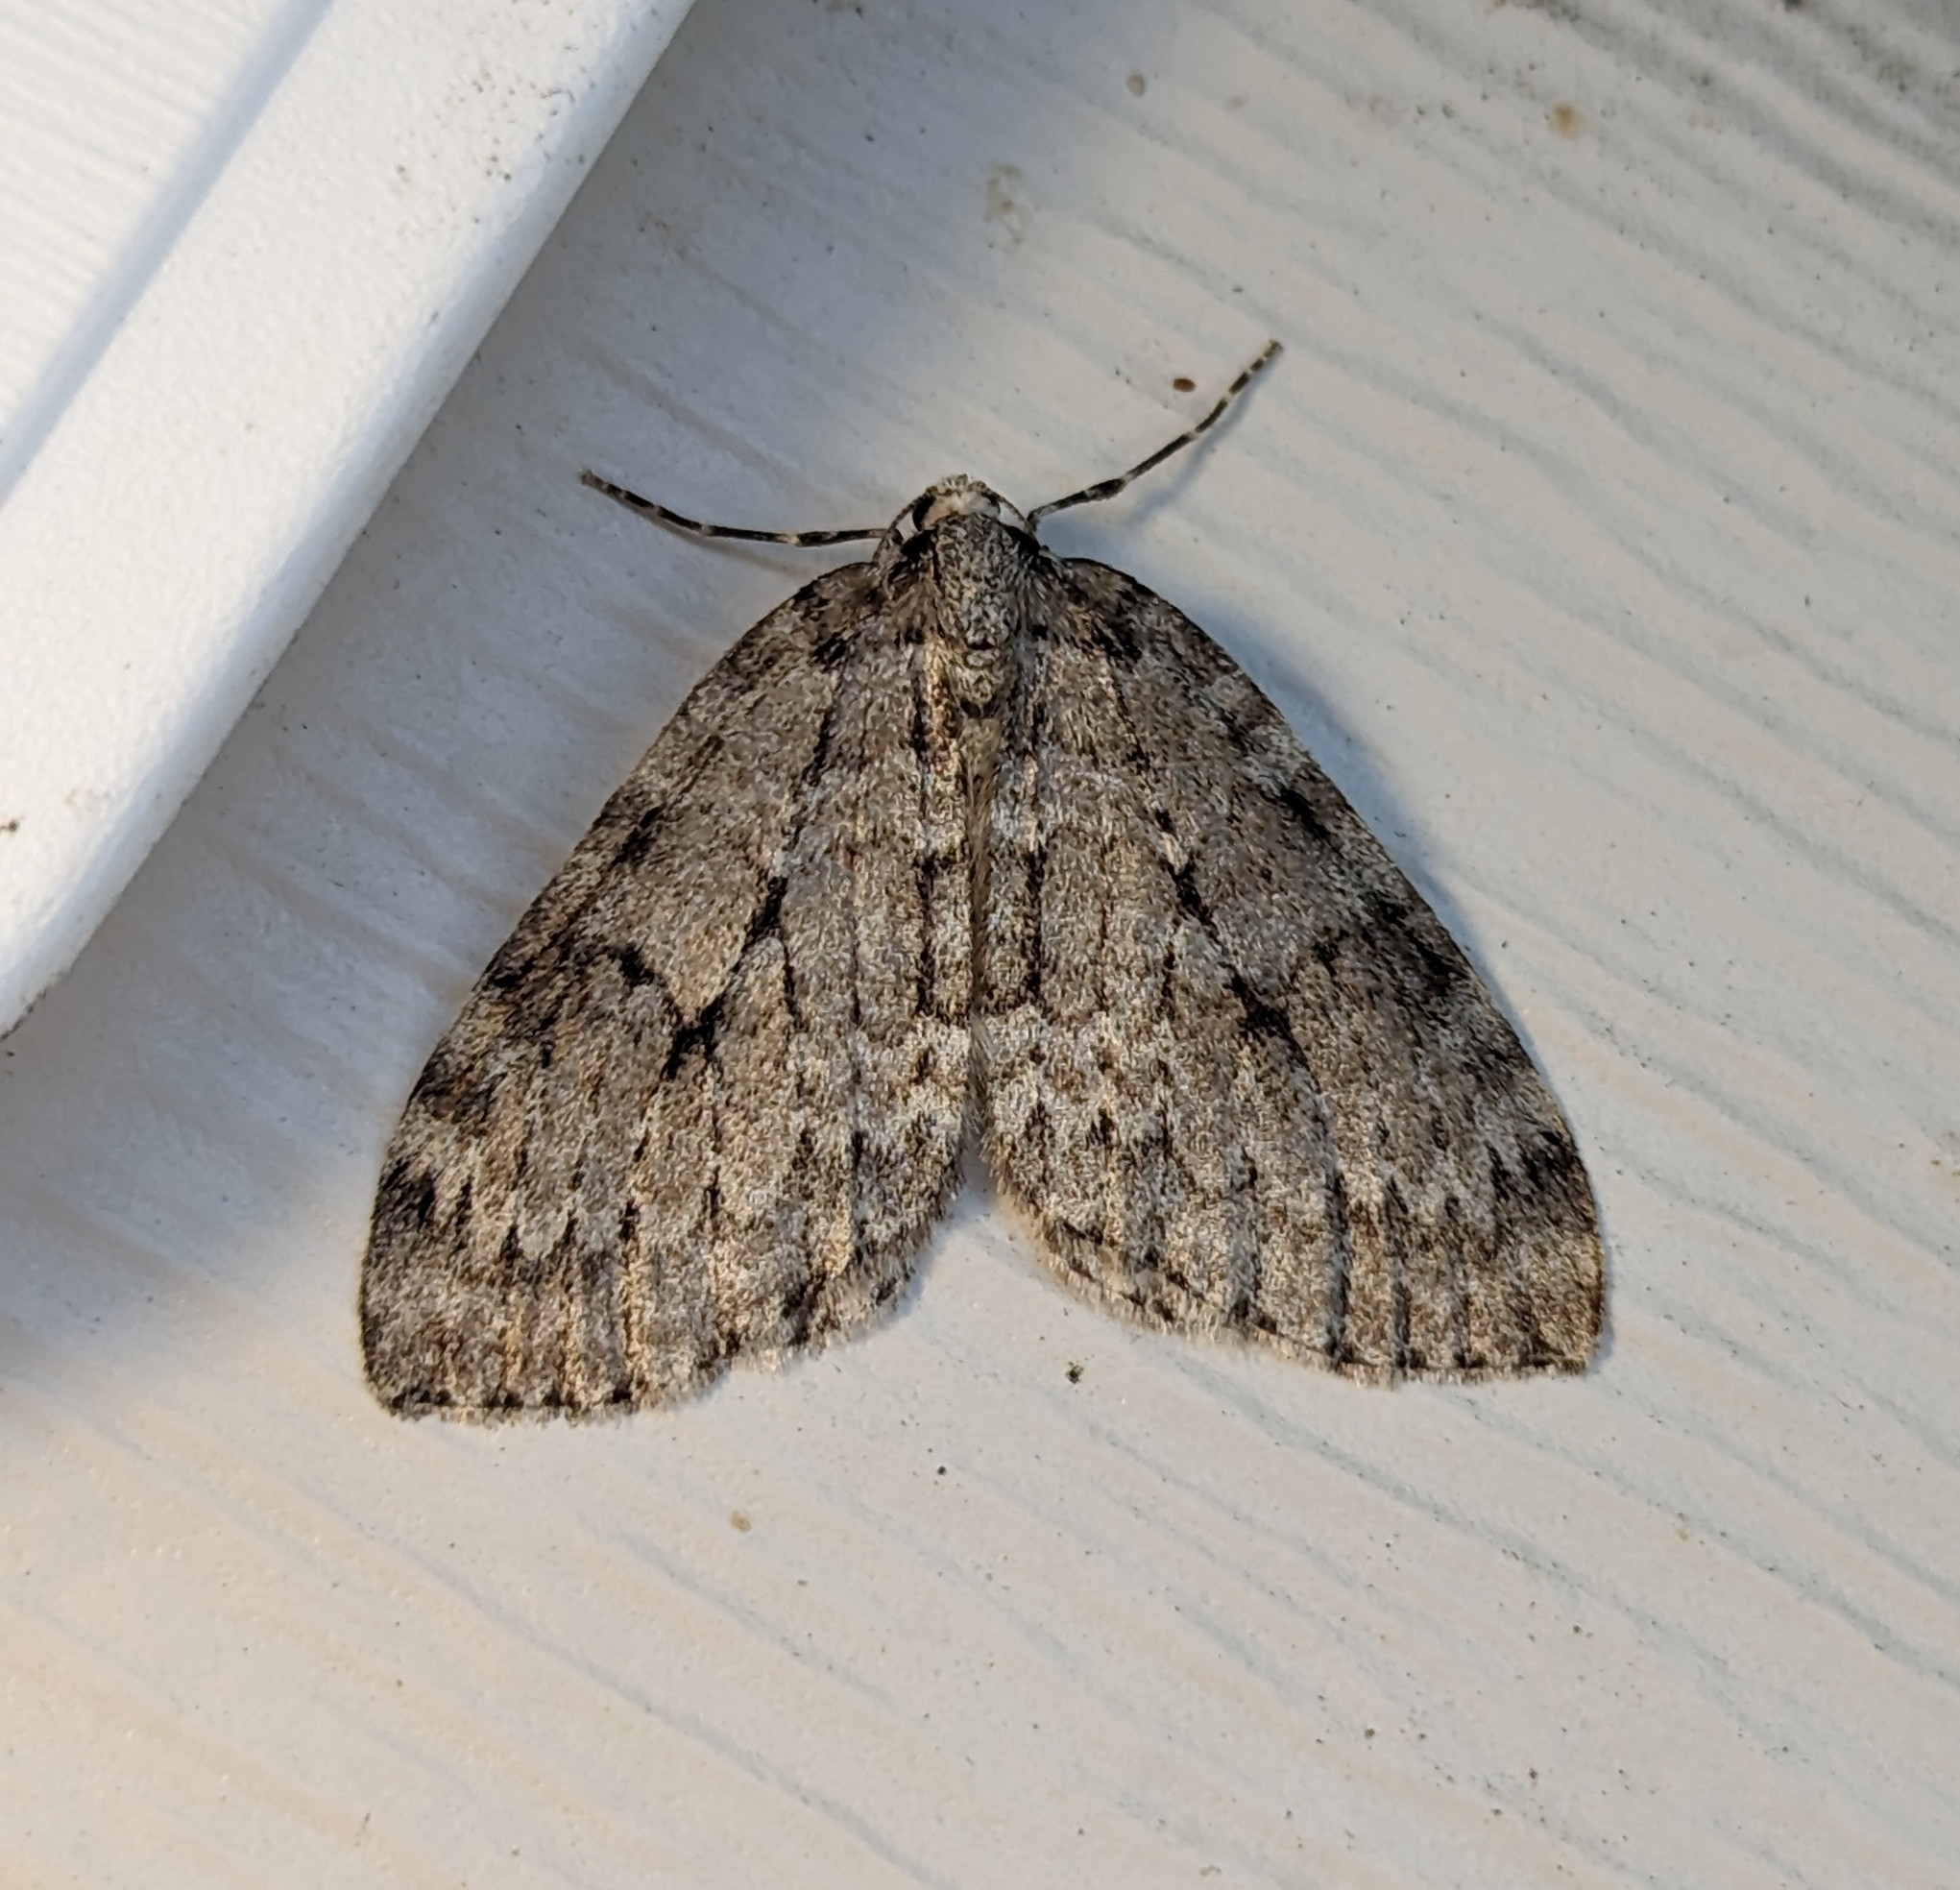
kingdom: Animalia
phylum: Arthropoda
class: Insecta
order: Lepidoptera
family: Geometridae
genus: Epirrita
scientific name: Epirrita autumnata
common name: Autumnal moth
